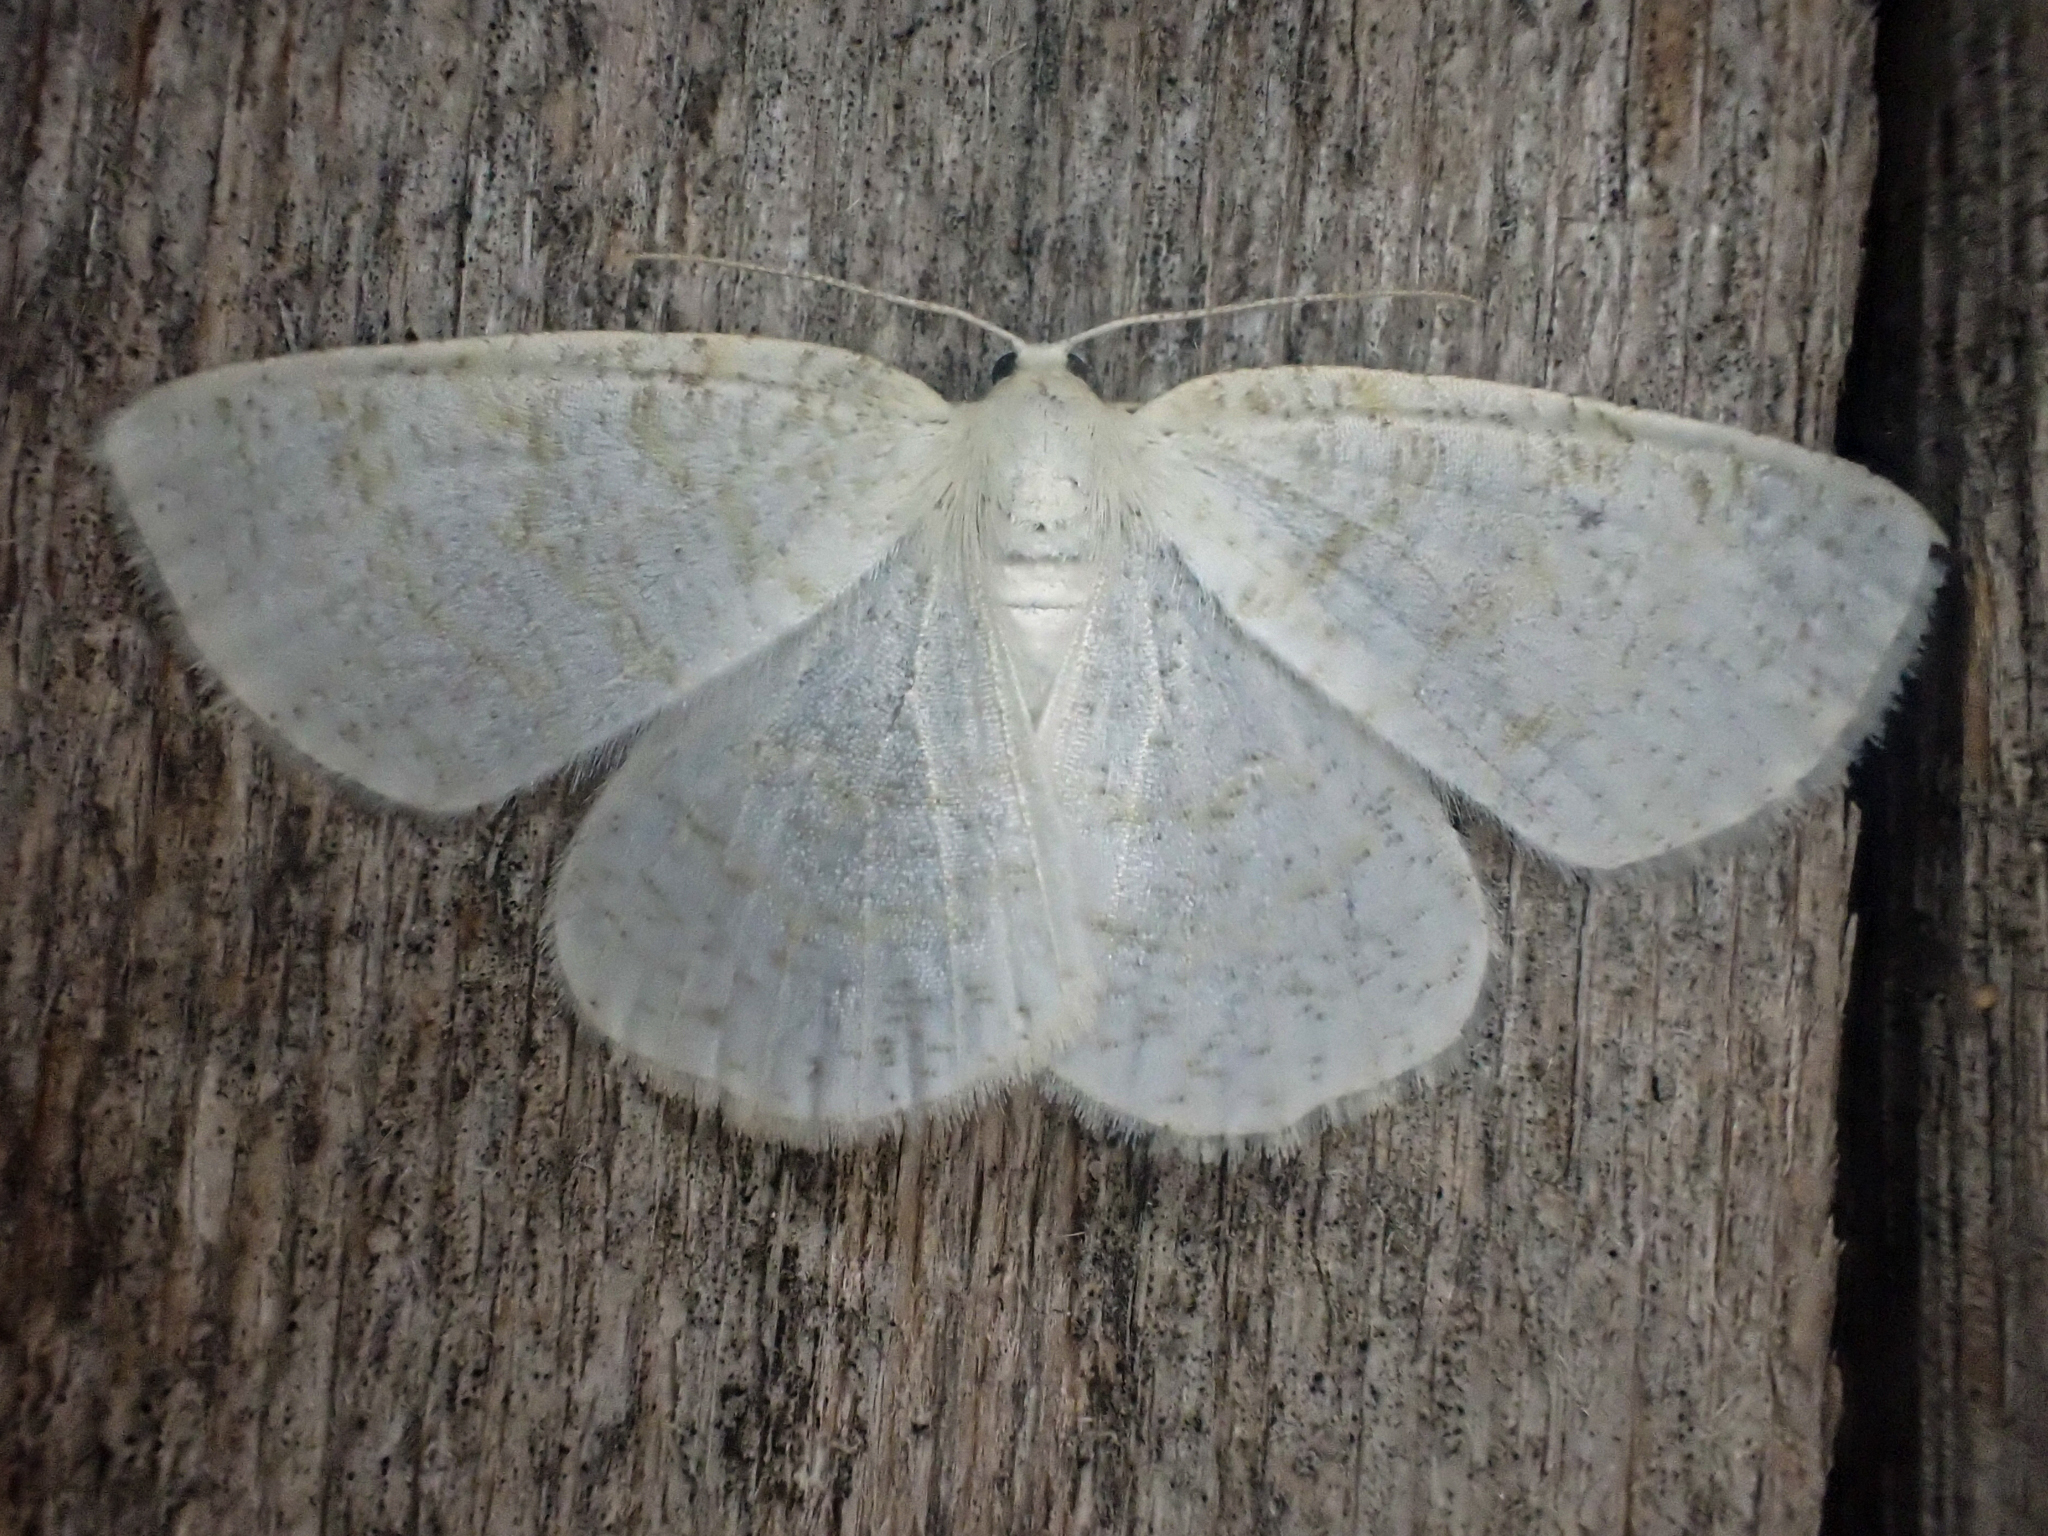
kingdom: Animalia
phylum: Arthropoda
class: Insecta
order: Lepidoptera
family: Geometridae
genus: Cabera
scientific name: Cabera erythemaria
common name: Yellow-dusted cream moth
